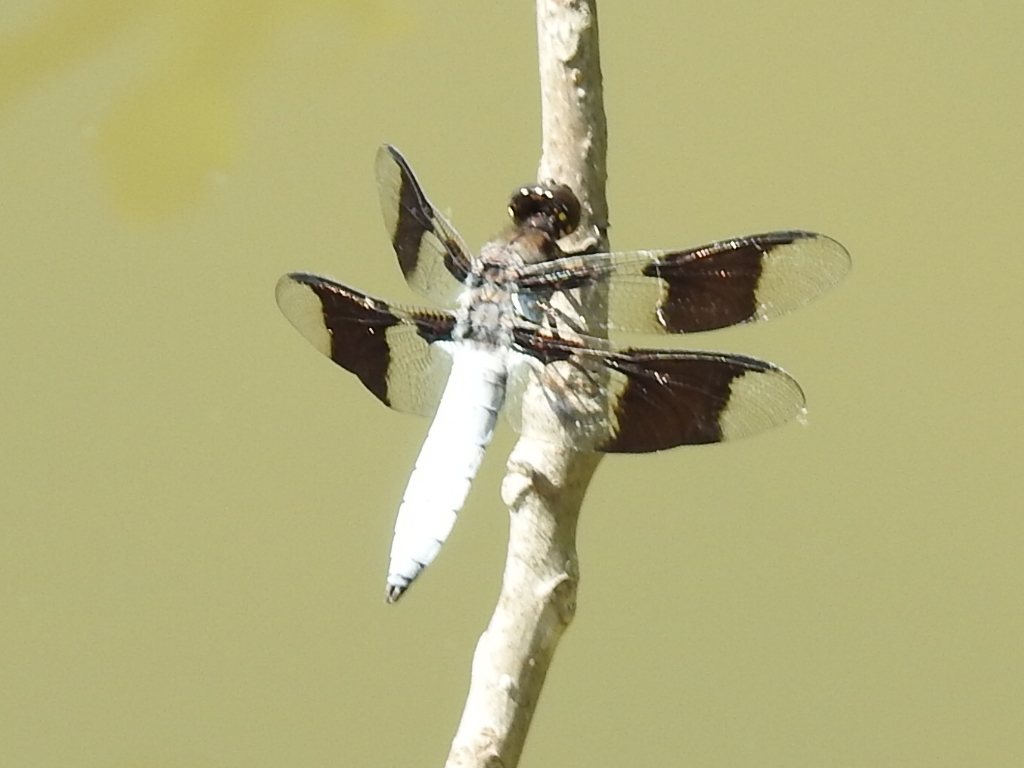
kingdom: Animalia
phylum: Arthropoda
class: Insecta
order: Odonata
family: Libellulidae
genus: Plathemis
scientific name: Plathemis lydia
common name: Common whitetail
